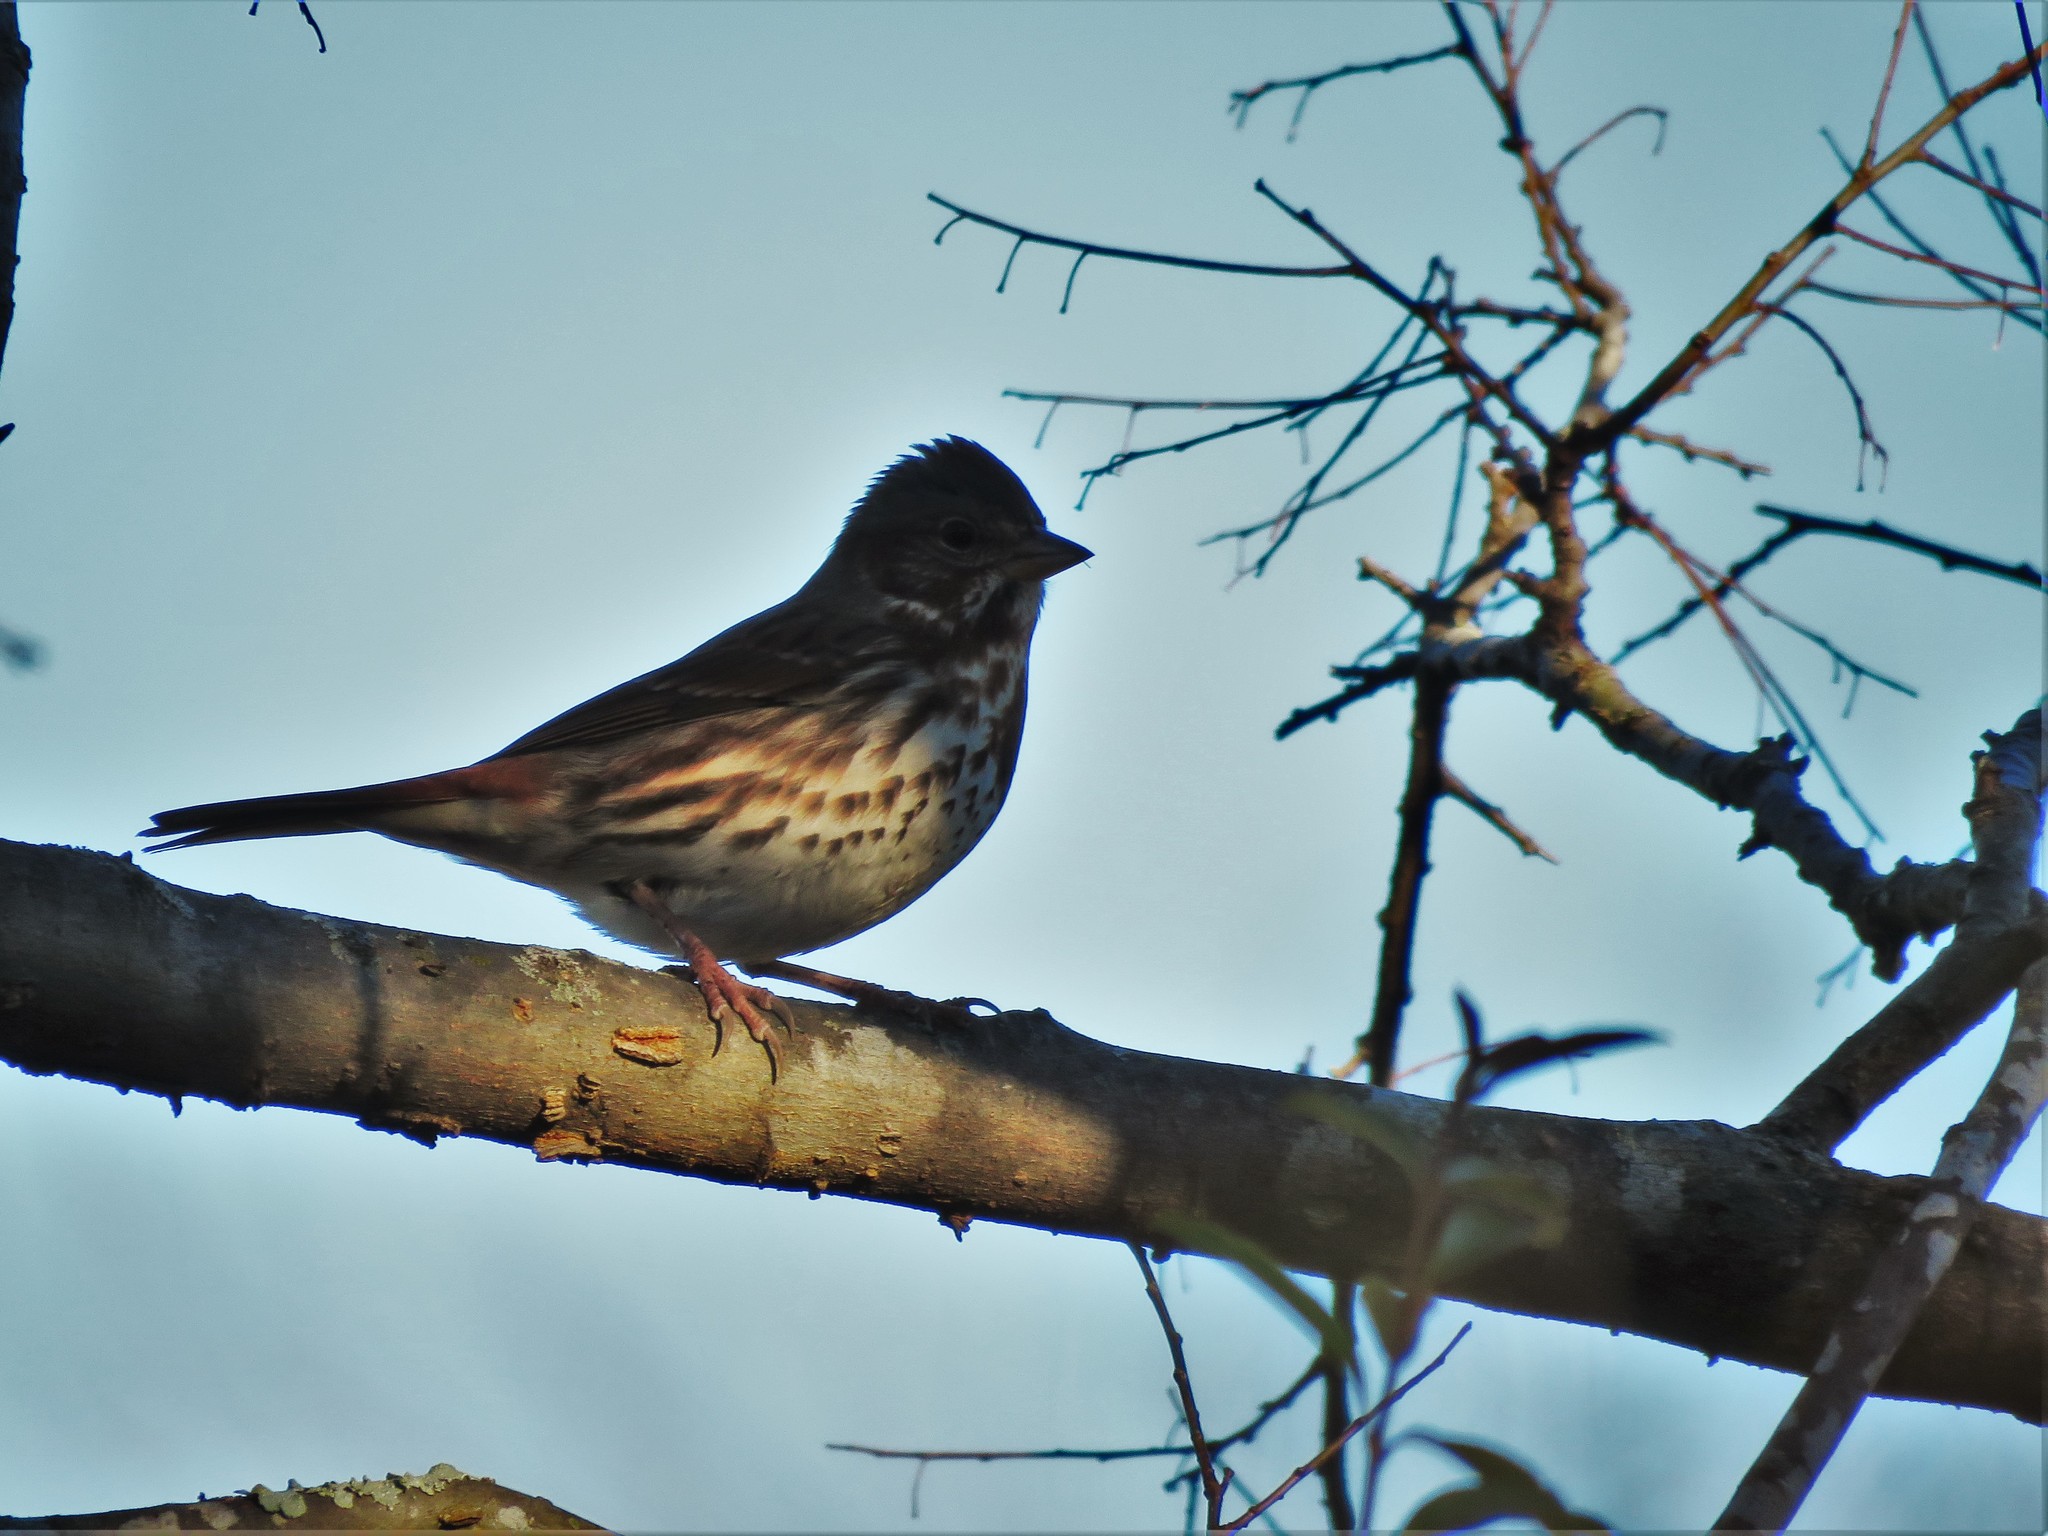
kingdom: Animalia
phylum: Chordata
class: Aves
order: Passeriformes
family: Passerellidae
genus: Passerella
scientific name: Passerella iliaca
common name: Fox sparrow
